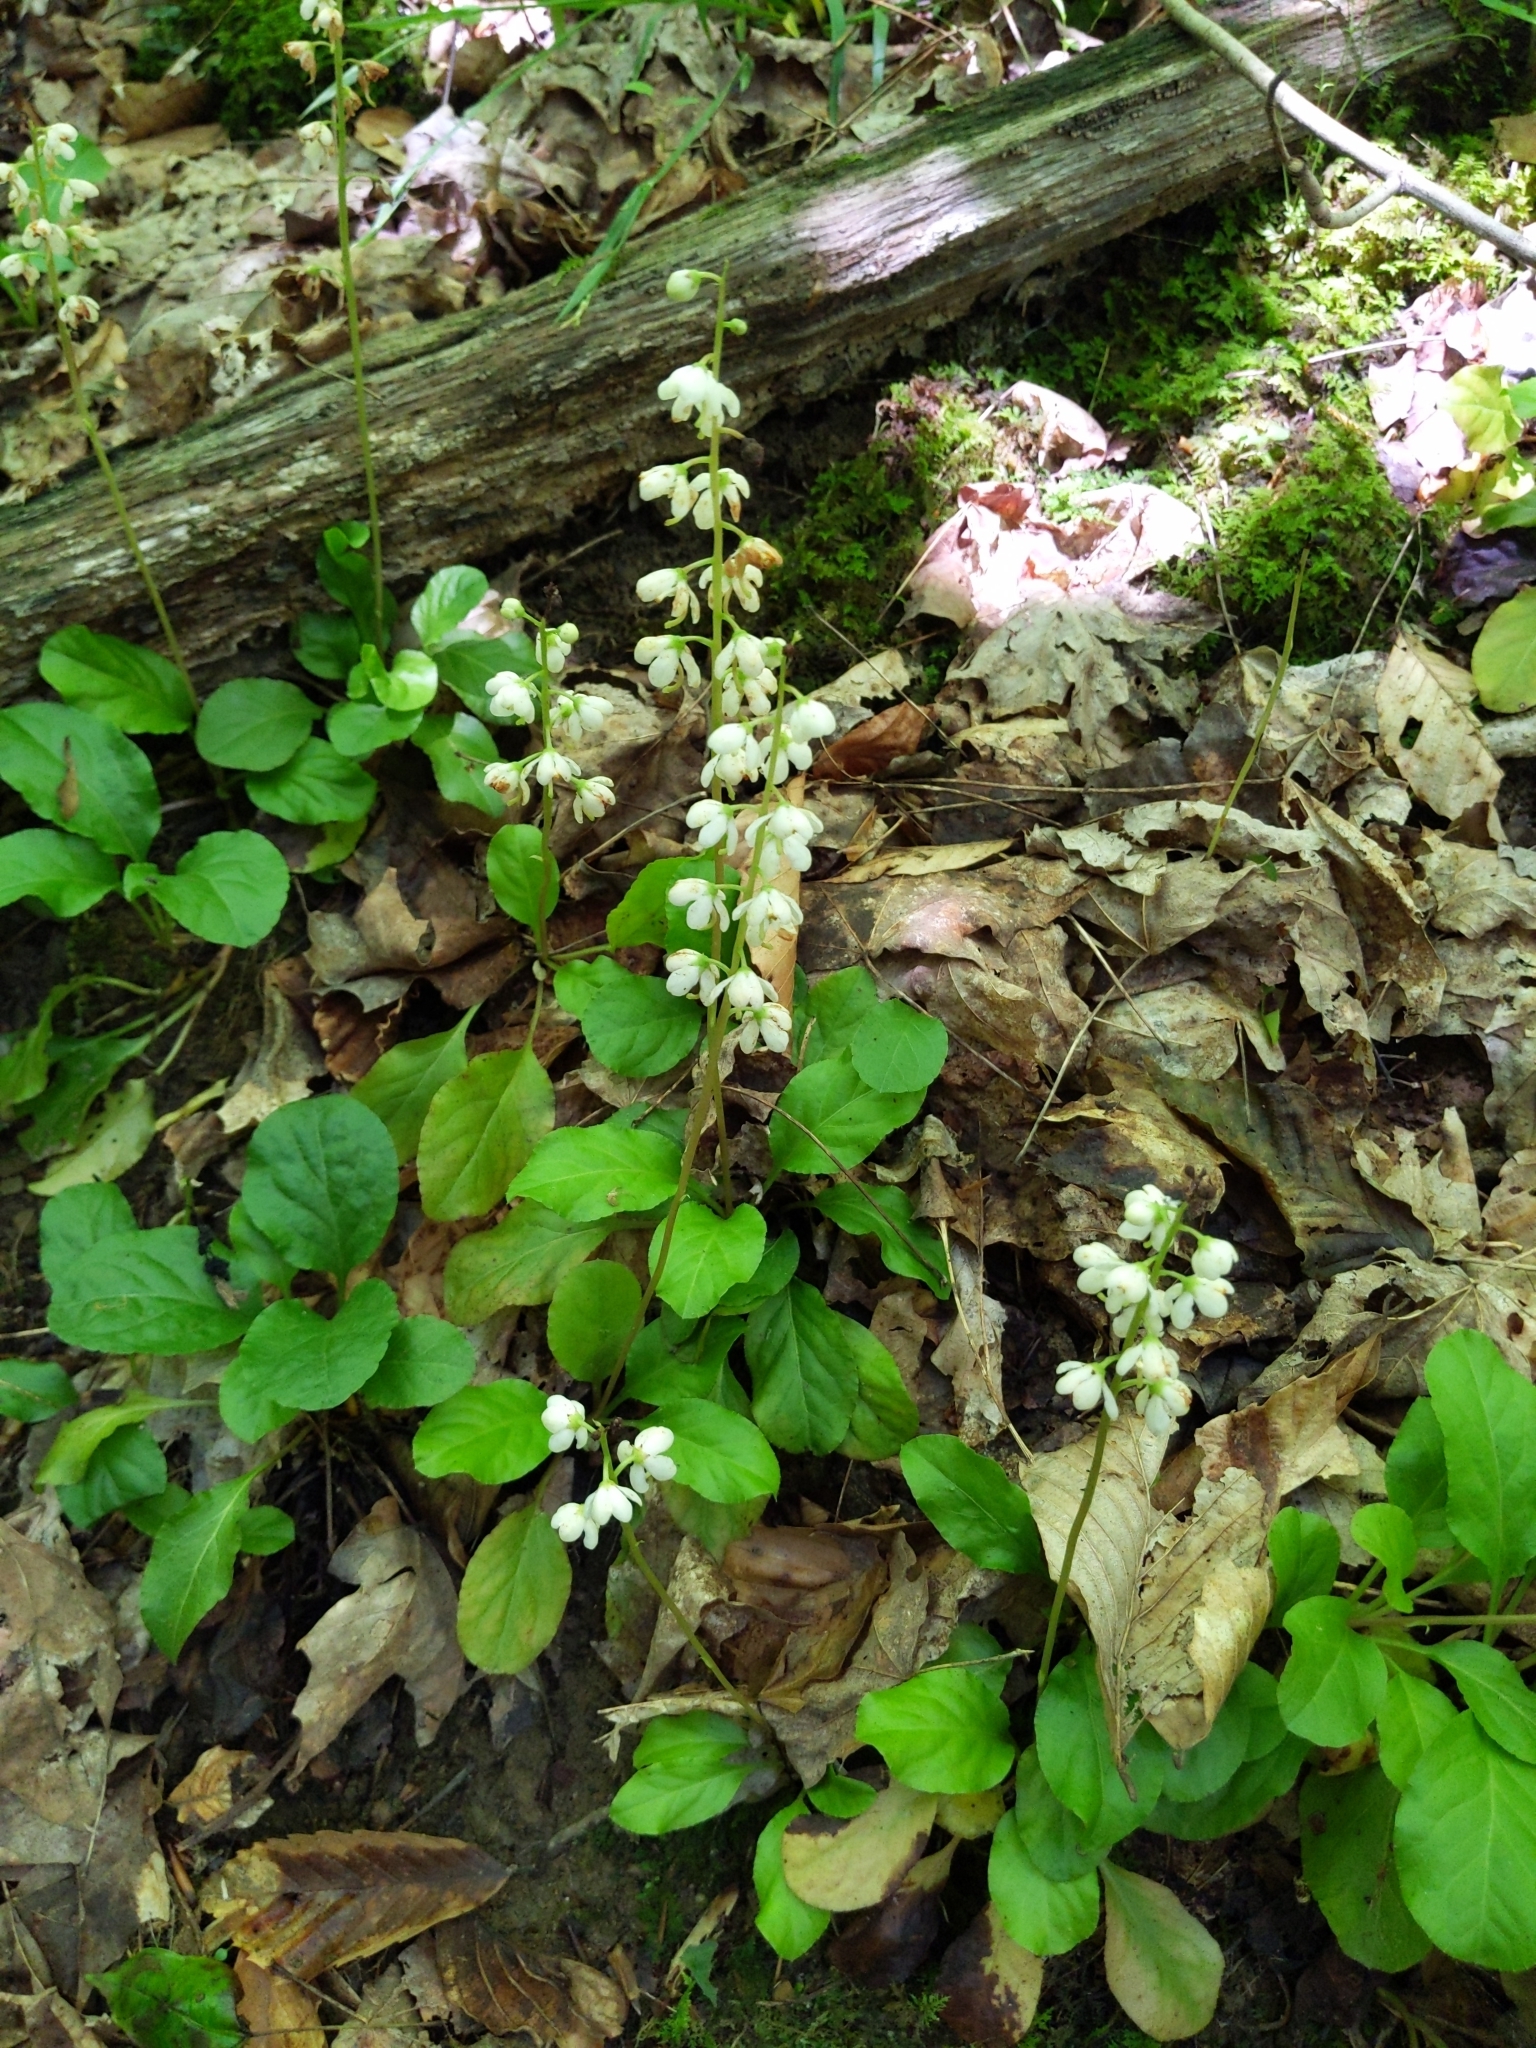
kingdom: Plantae
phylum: Tracheophyta
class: Magnoliopsida
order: Ericales
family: Ericaceae
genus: Pyrola
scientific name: Pyrola elliptica
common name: Shinleaf
